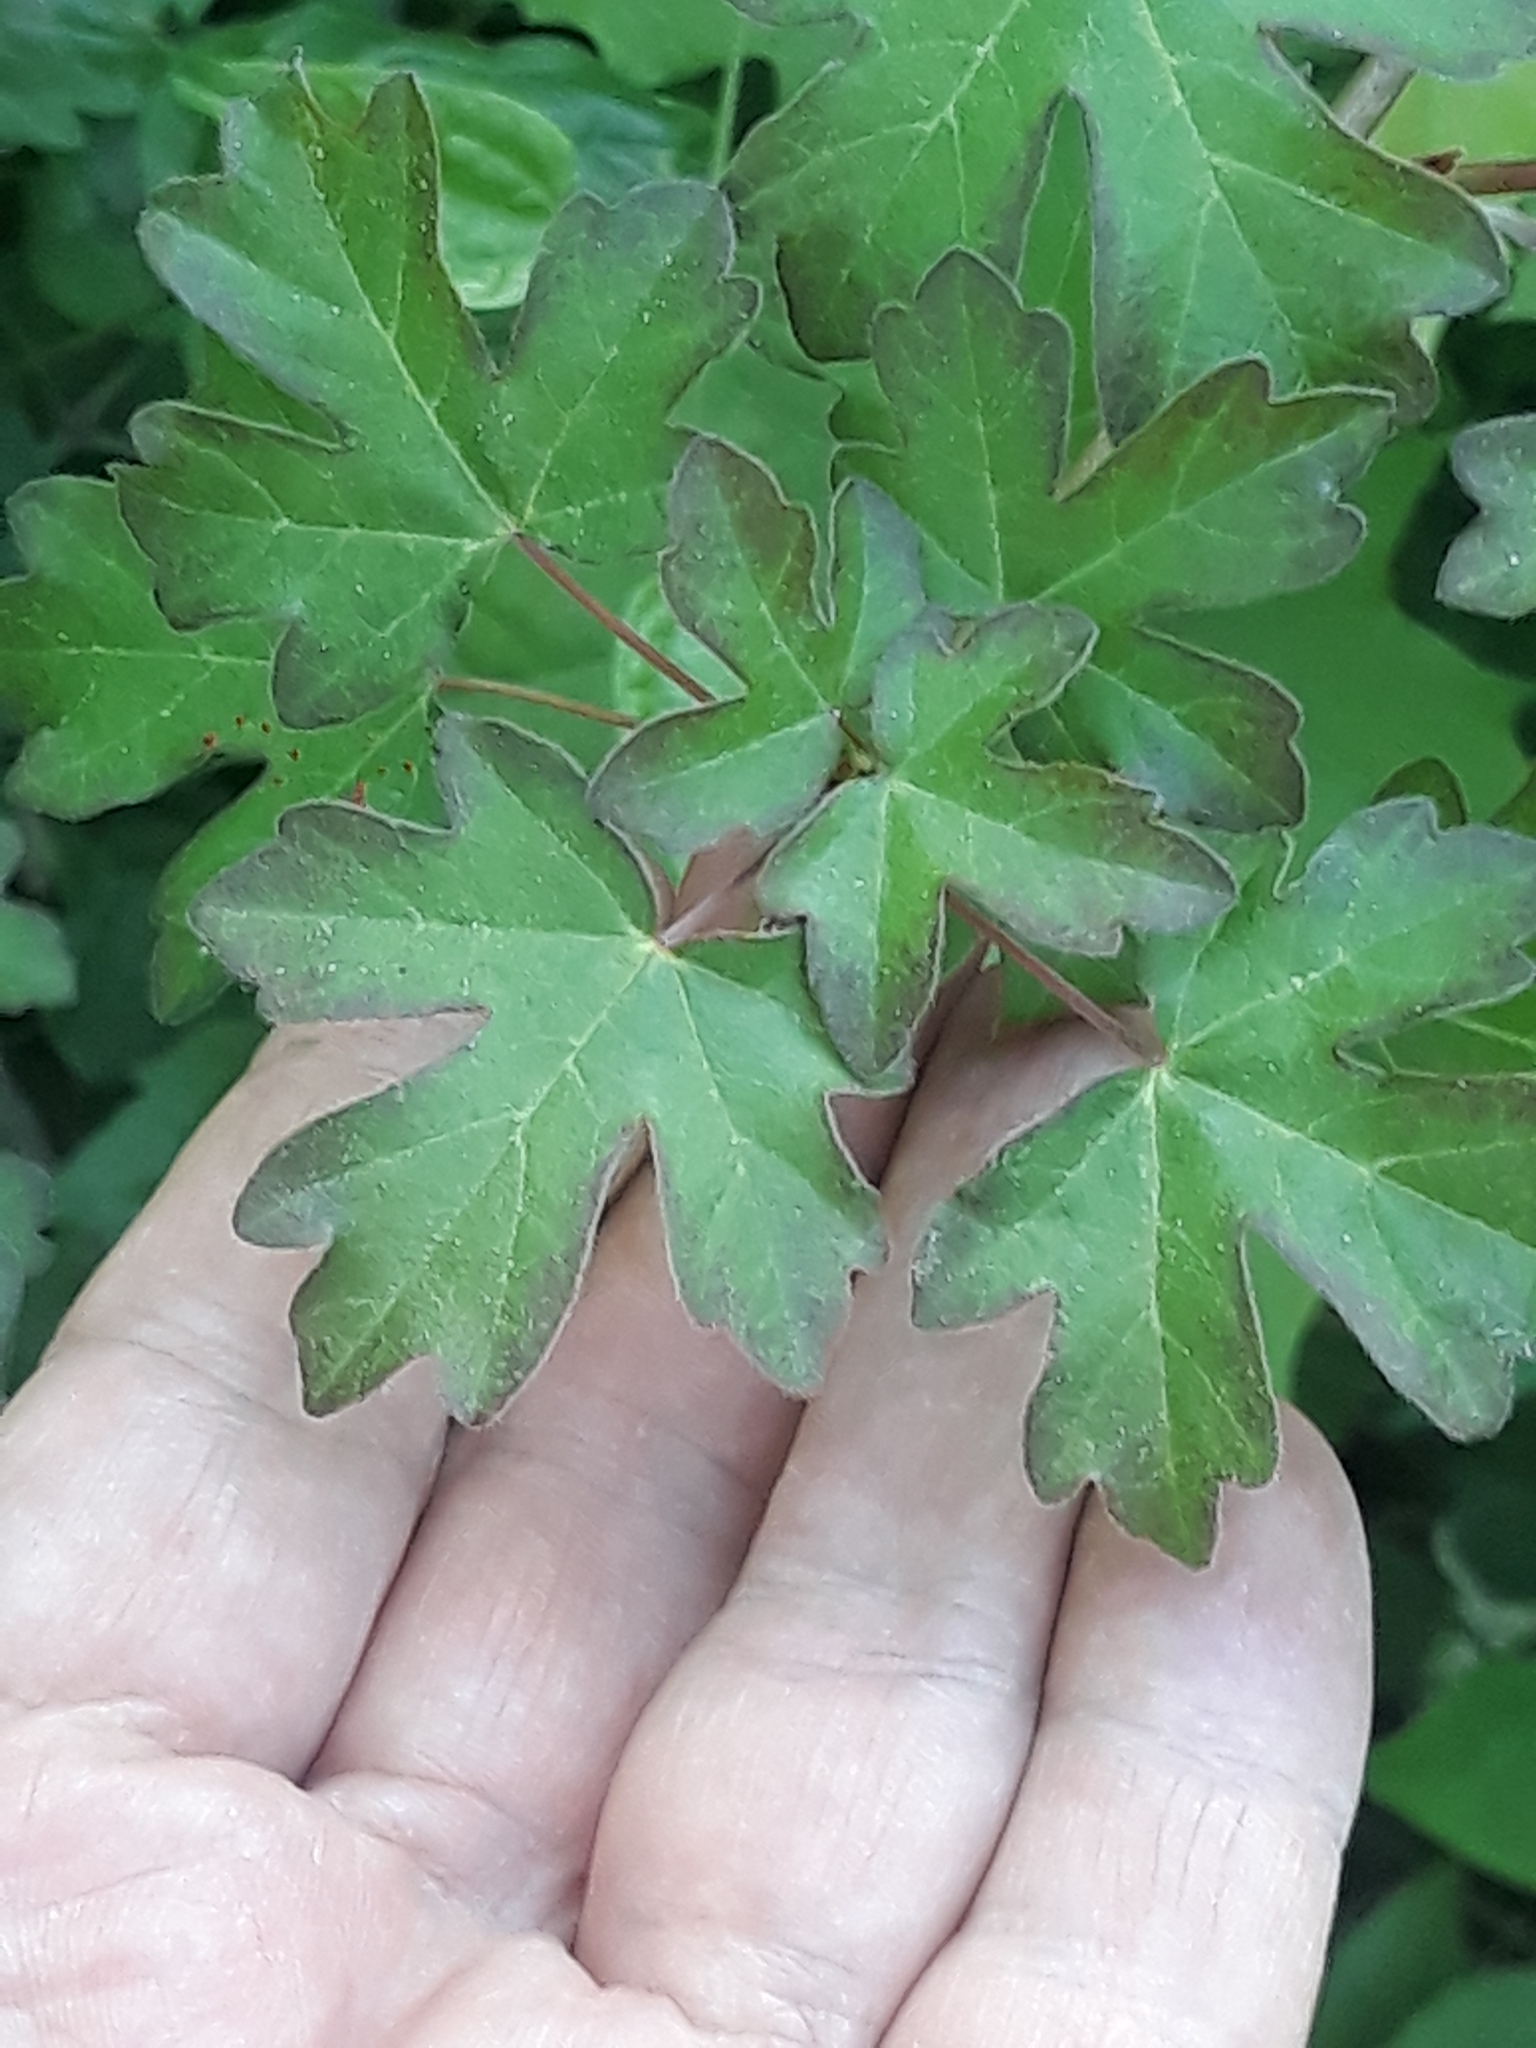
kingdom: Plantae
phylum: Tracheophyta
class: Magnoliopsida
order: Sapindales
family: Sapindaceae
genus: Acer
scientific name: Acer campestre
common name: Field maple
